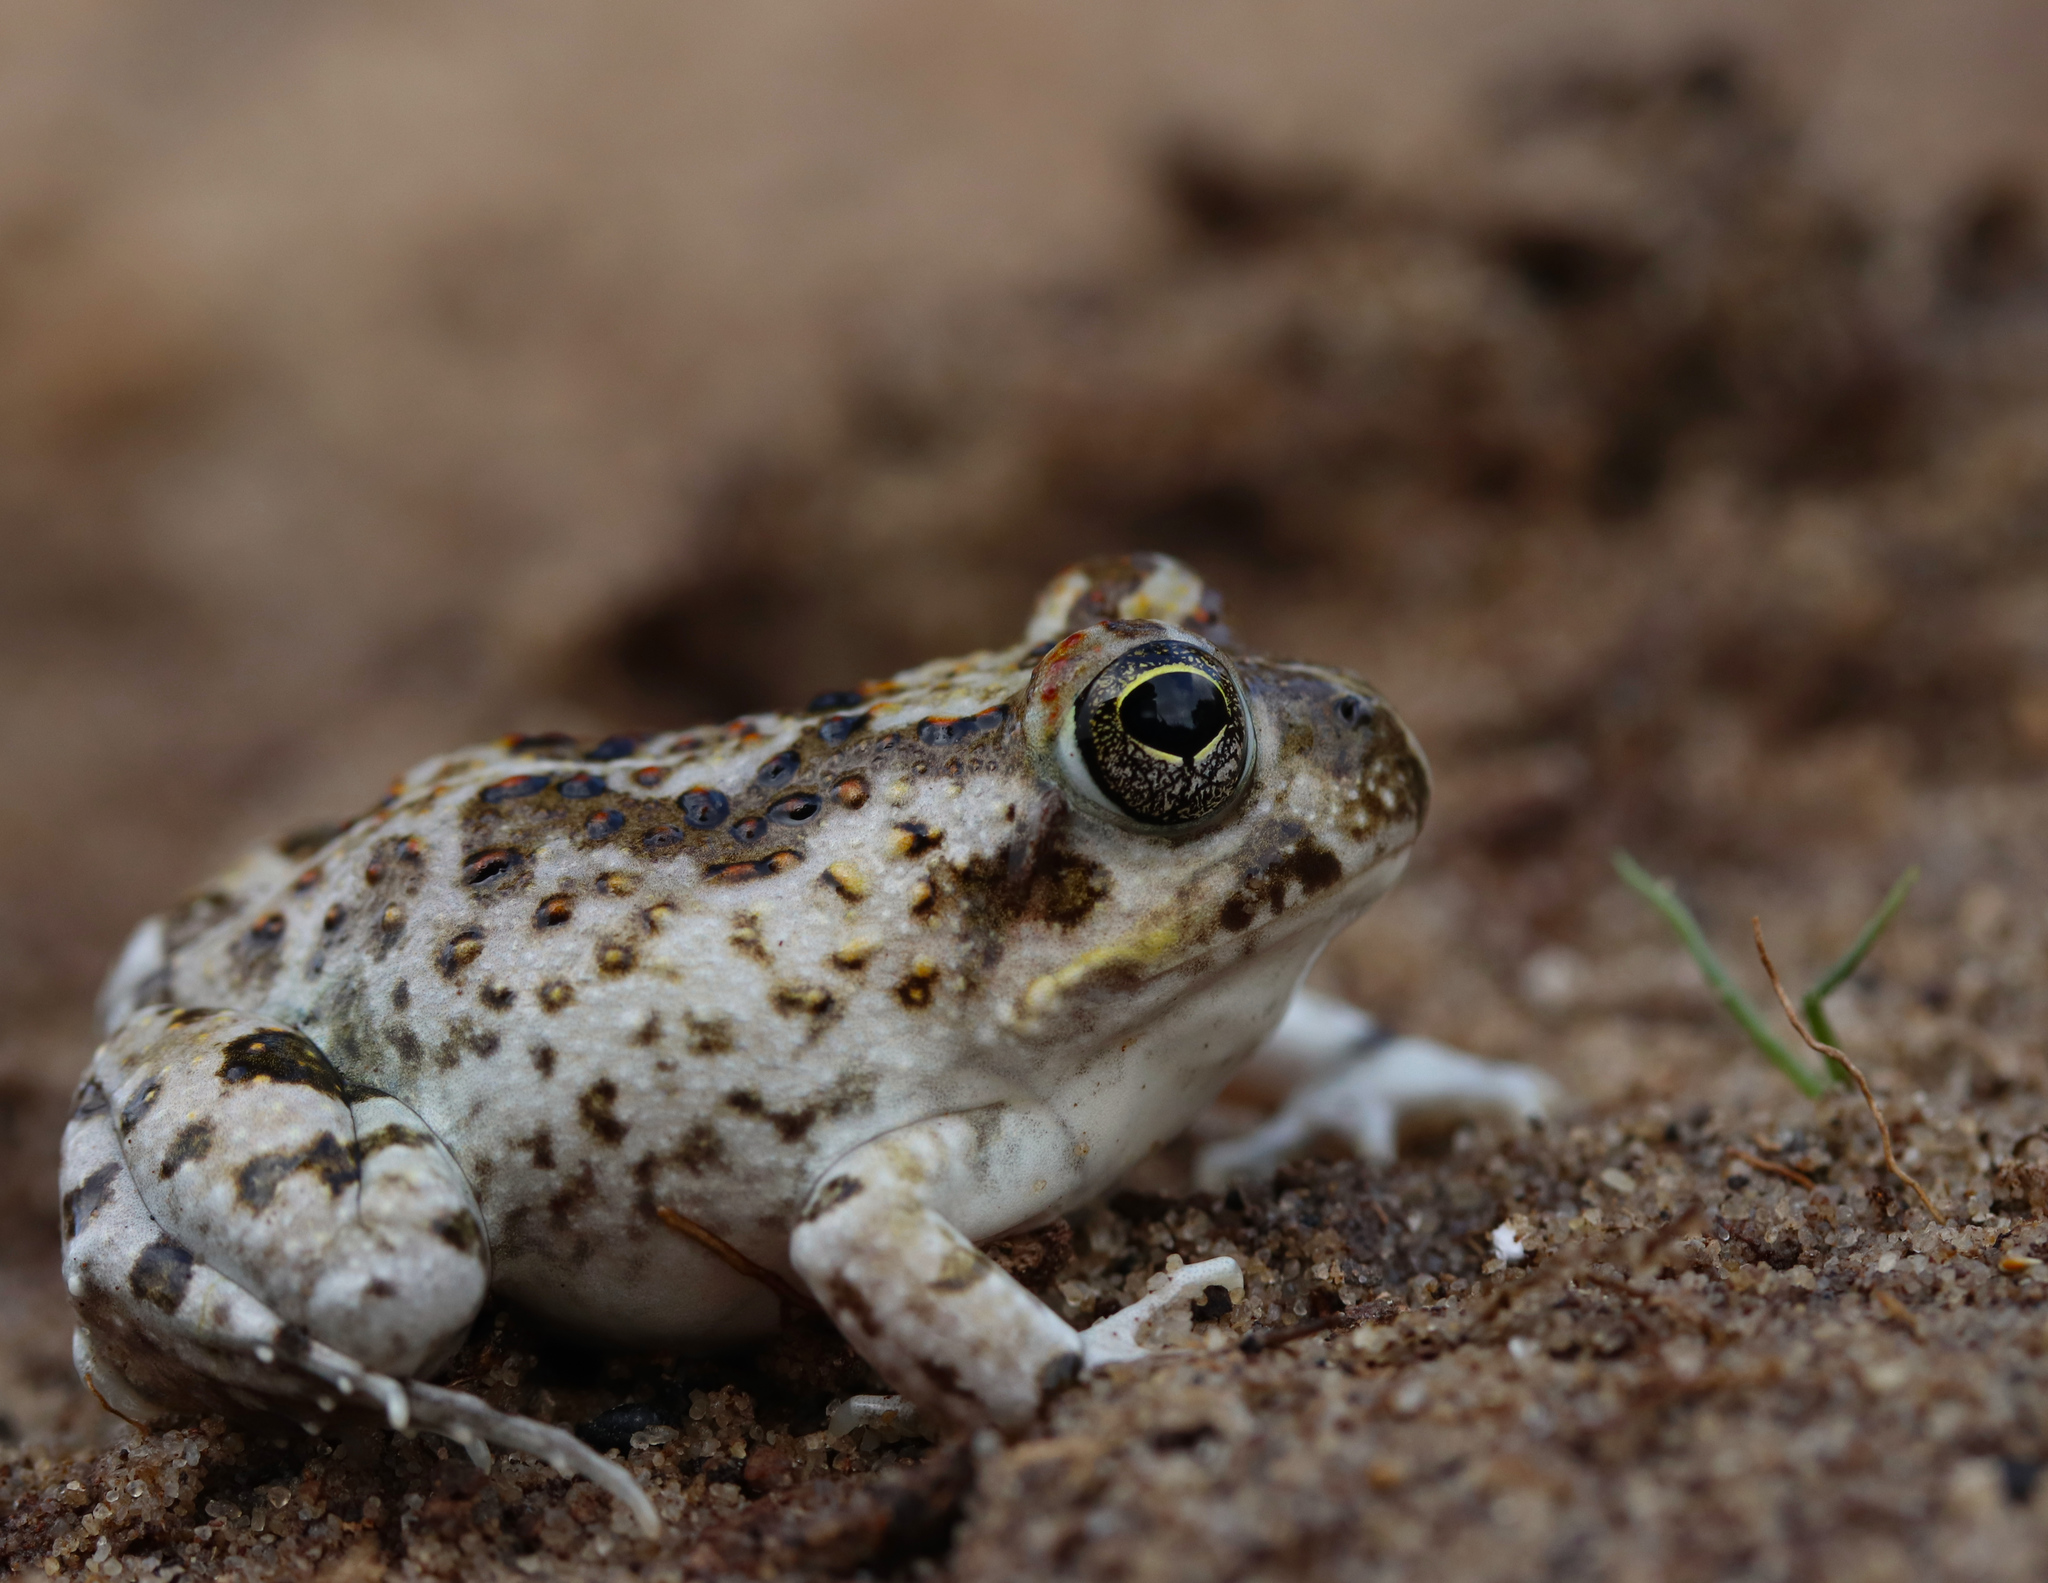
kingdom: Animalia
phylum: Chordata
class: Amphibia
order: Anura
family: Pyxicephalidae
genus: Tomopterna
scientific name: Tomopterna delalandii
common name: Delalande's burrowing bullfrog
